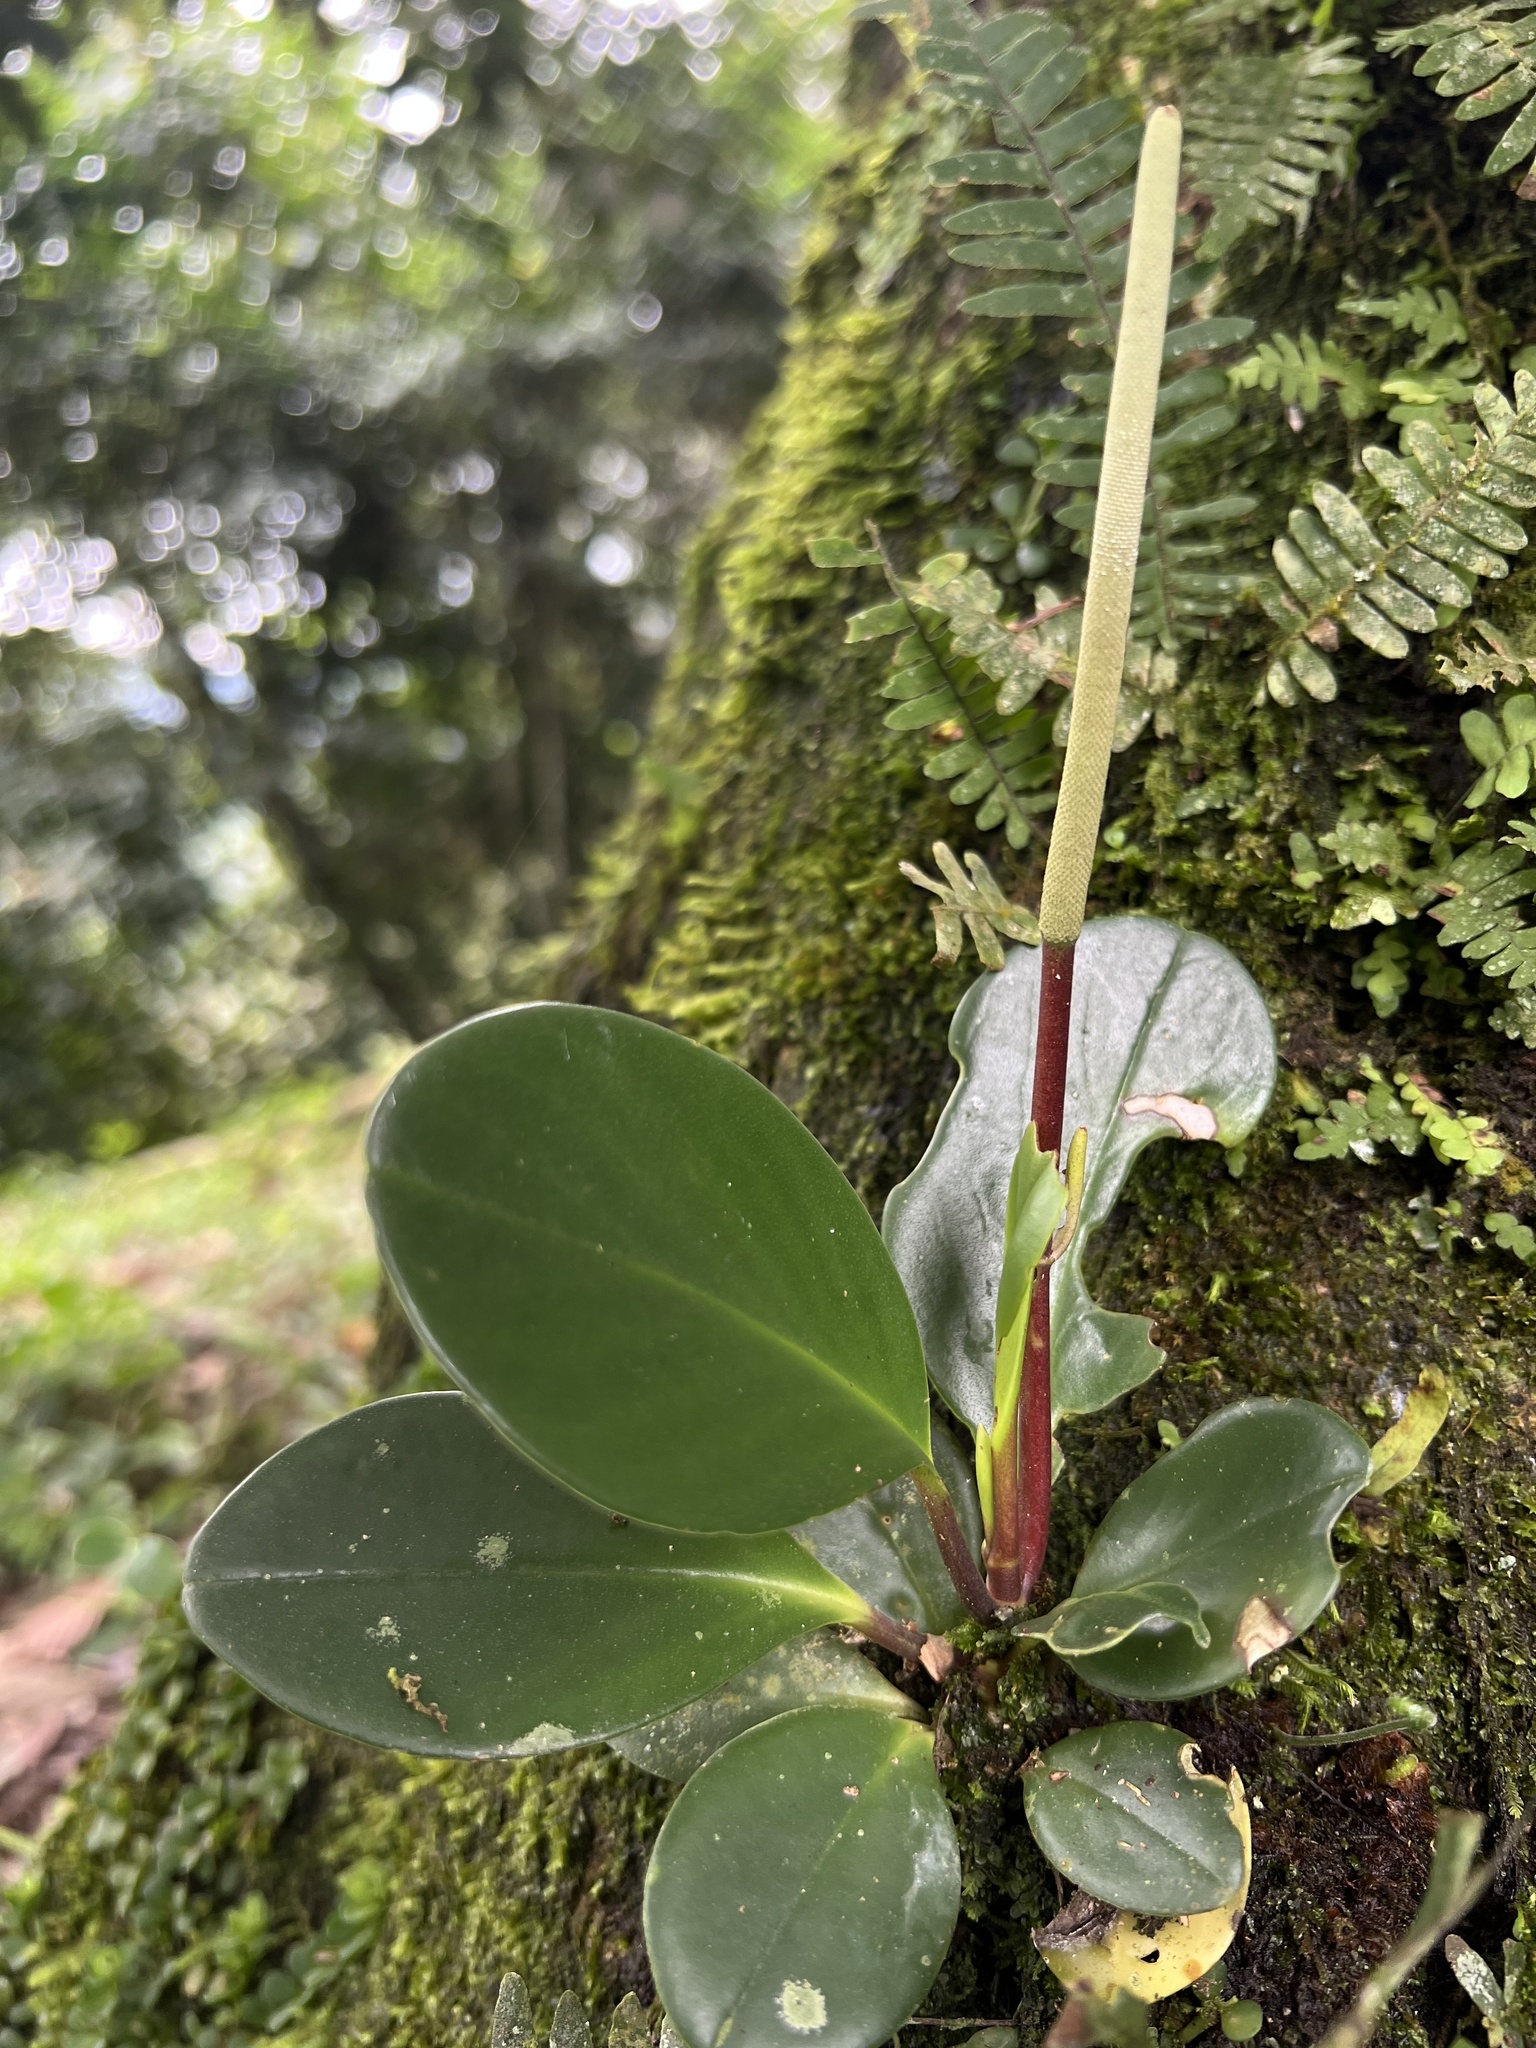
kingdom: Plantae
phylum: Tracheophyta
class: Magnoliopsida
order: Piperales
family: Piperaceae
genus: Peperomia
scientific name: Peperomia haematolepis
